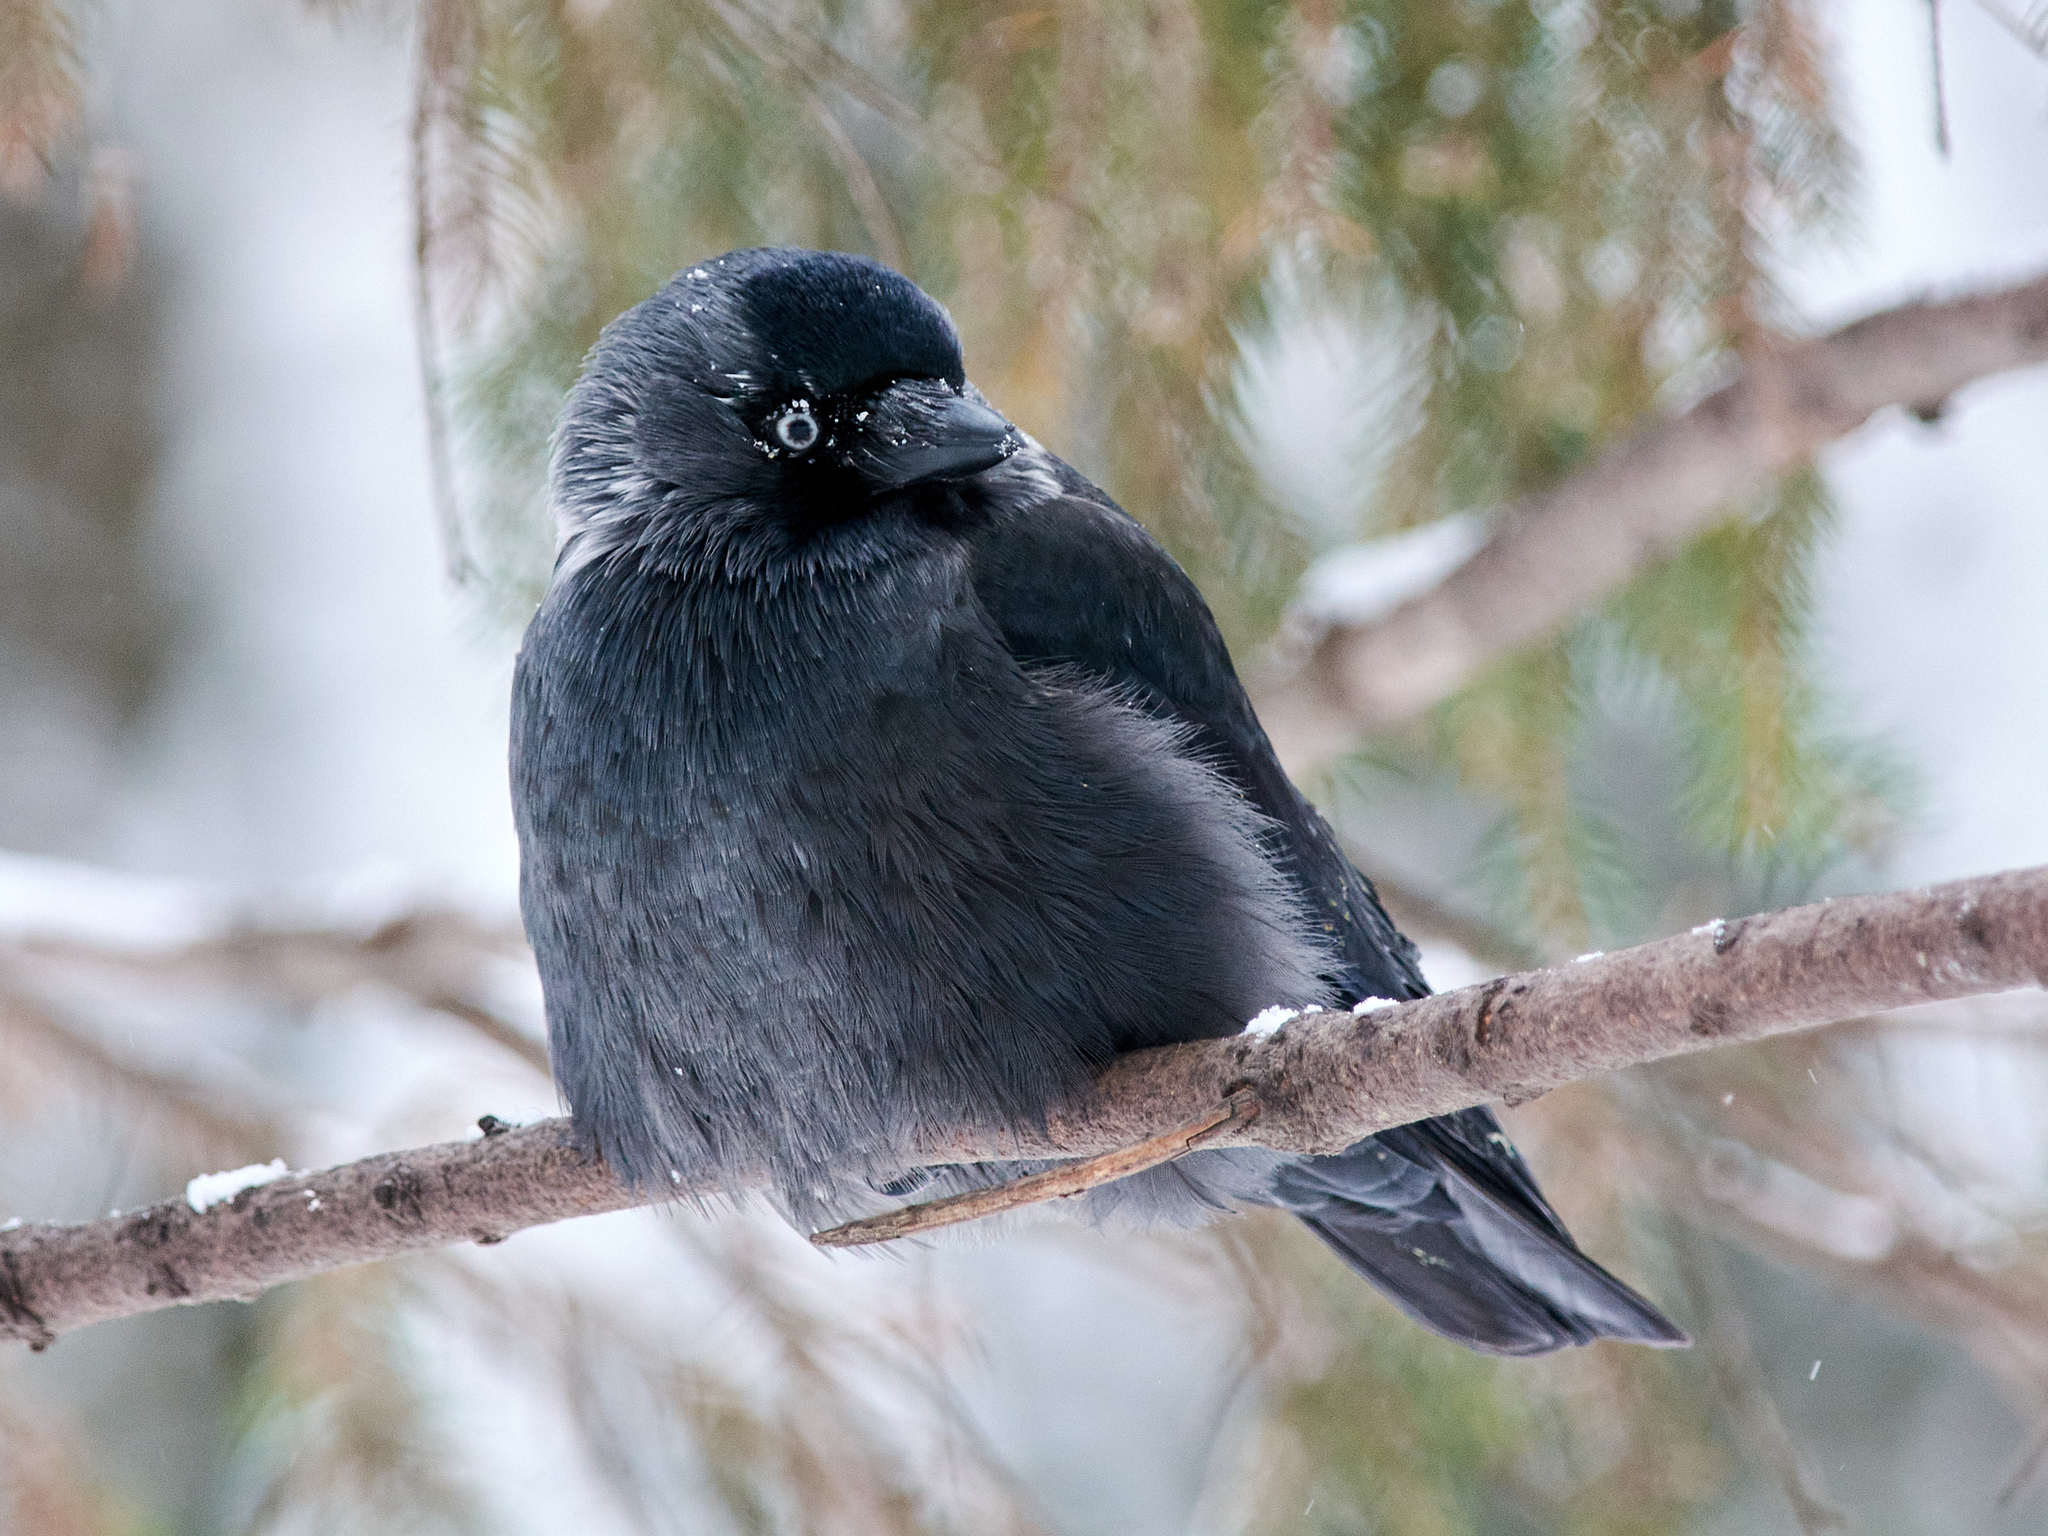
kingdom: Animalia
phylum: Chordata
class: Aves
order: Passeriformes
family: Corvidae
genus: Coloeus
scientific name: Coloeus monedula
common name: Western jackdaw
